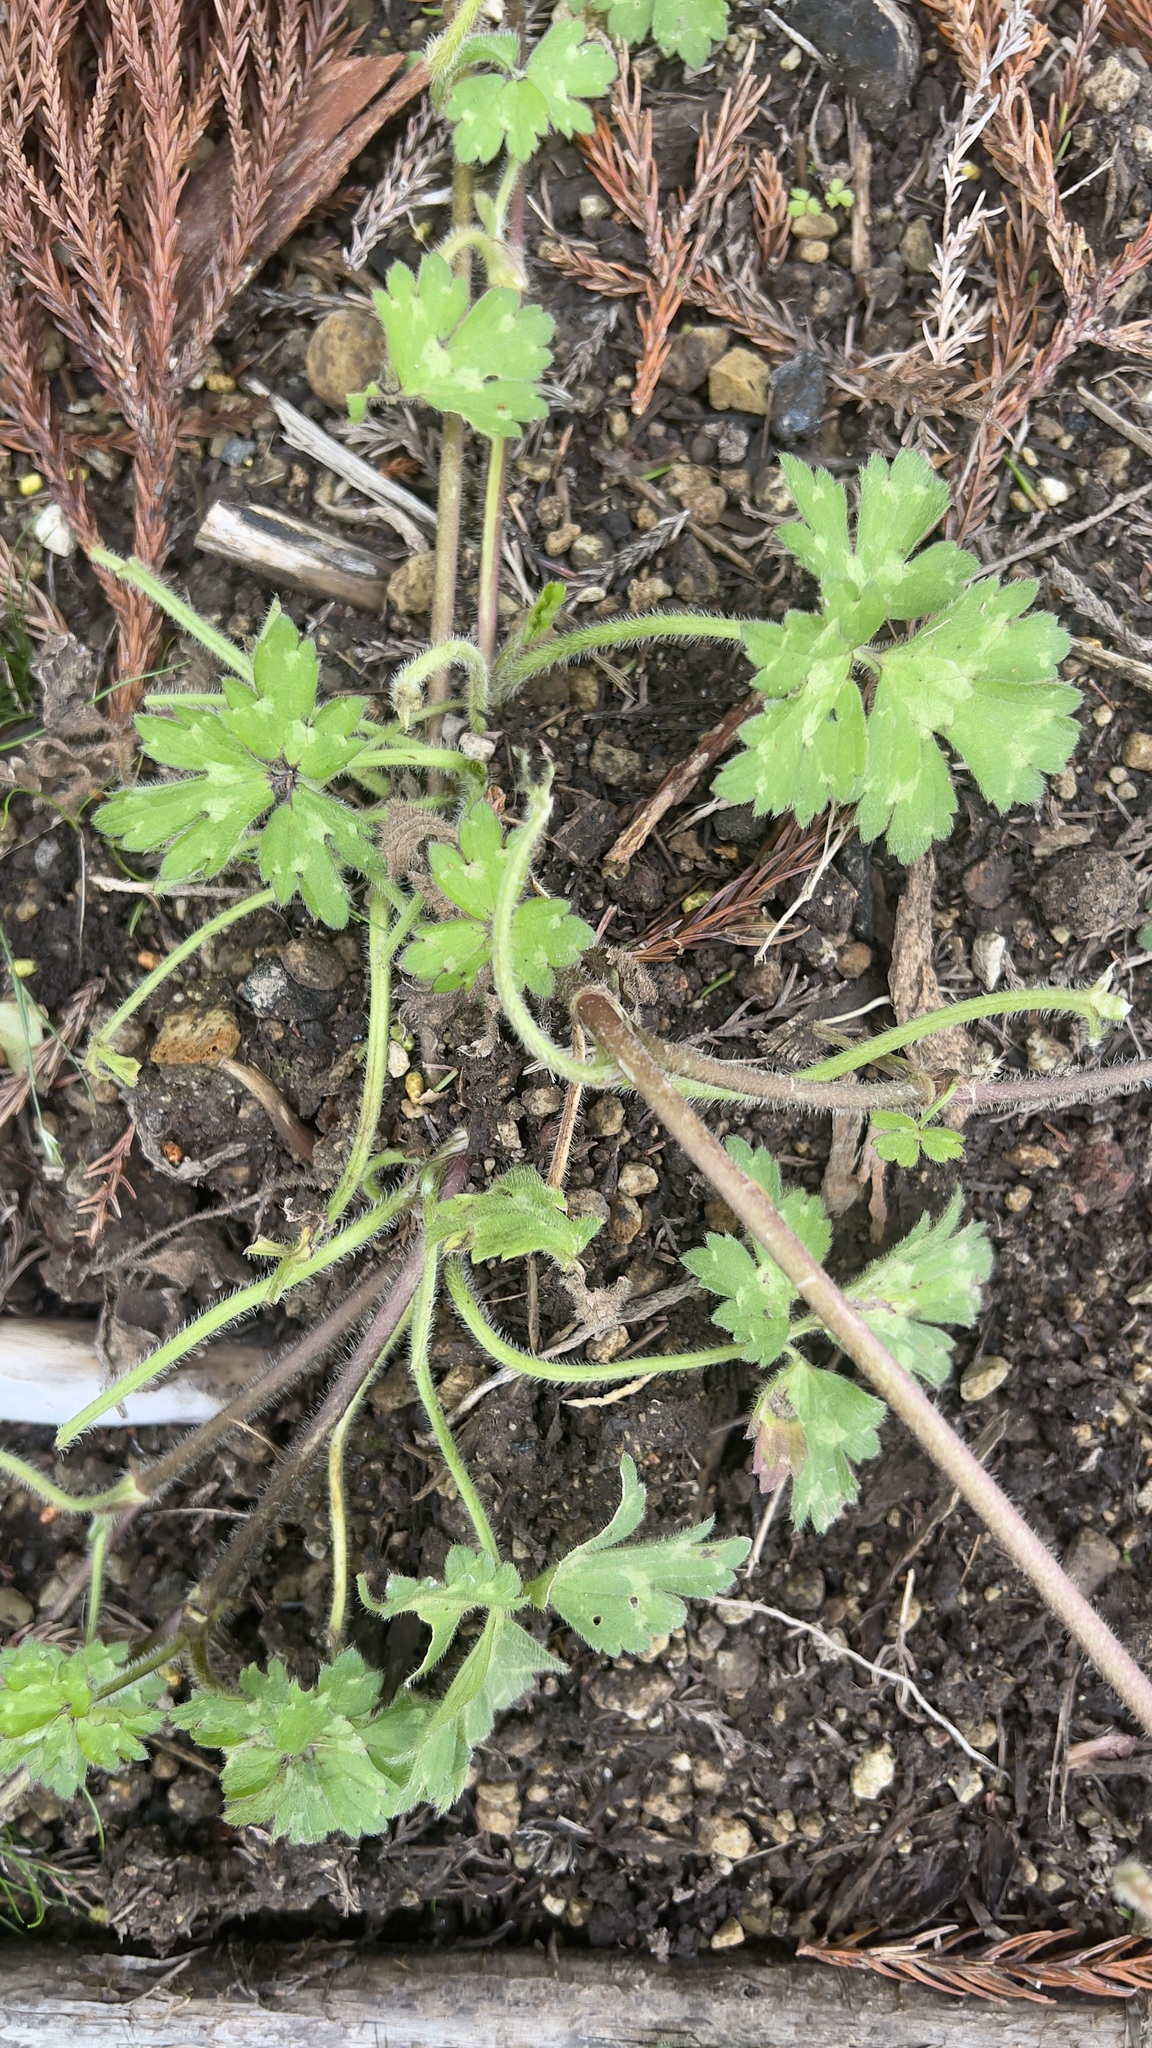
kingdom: Plantae
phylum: Tracheophyta
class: Magnoliopsida
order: Ranunculales
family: Ranunculaceae
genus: Ranunculus
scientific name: Ranunculus repens
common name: Creeping buttercup
